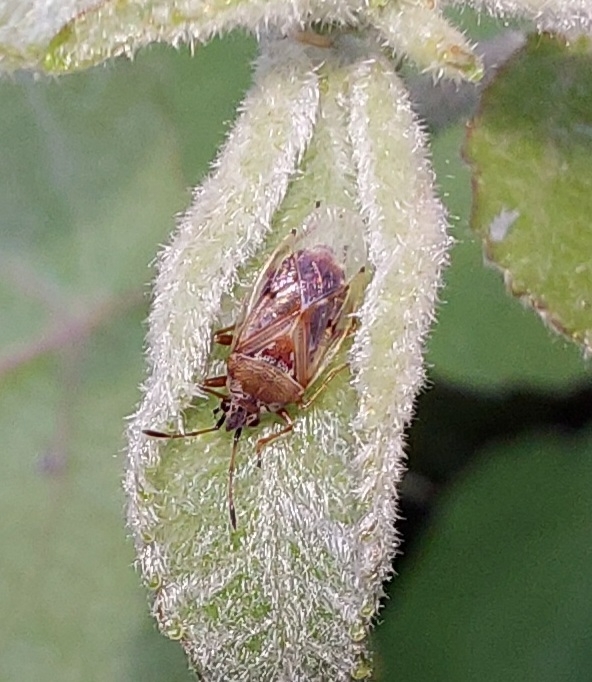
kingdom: Animalia
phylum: Arthropoda
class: Insecta
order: Hemiptera
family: Lygaeidae
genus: Kleidocerys
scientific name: Kleidocerys resedae
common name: Birch catkin bug
